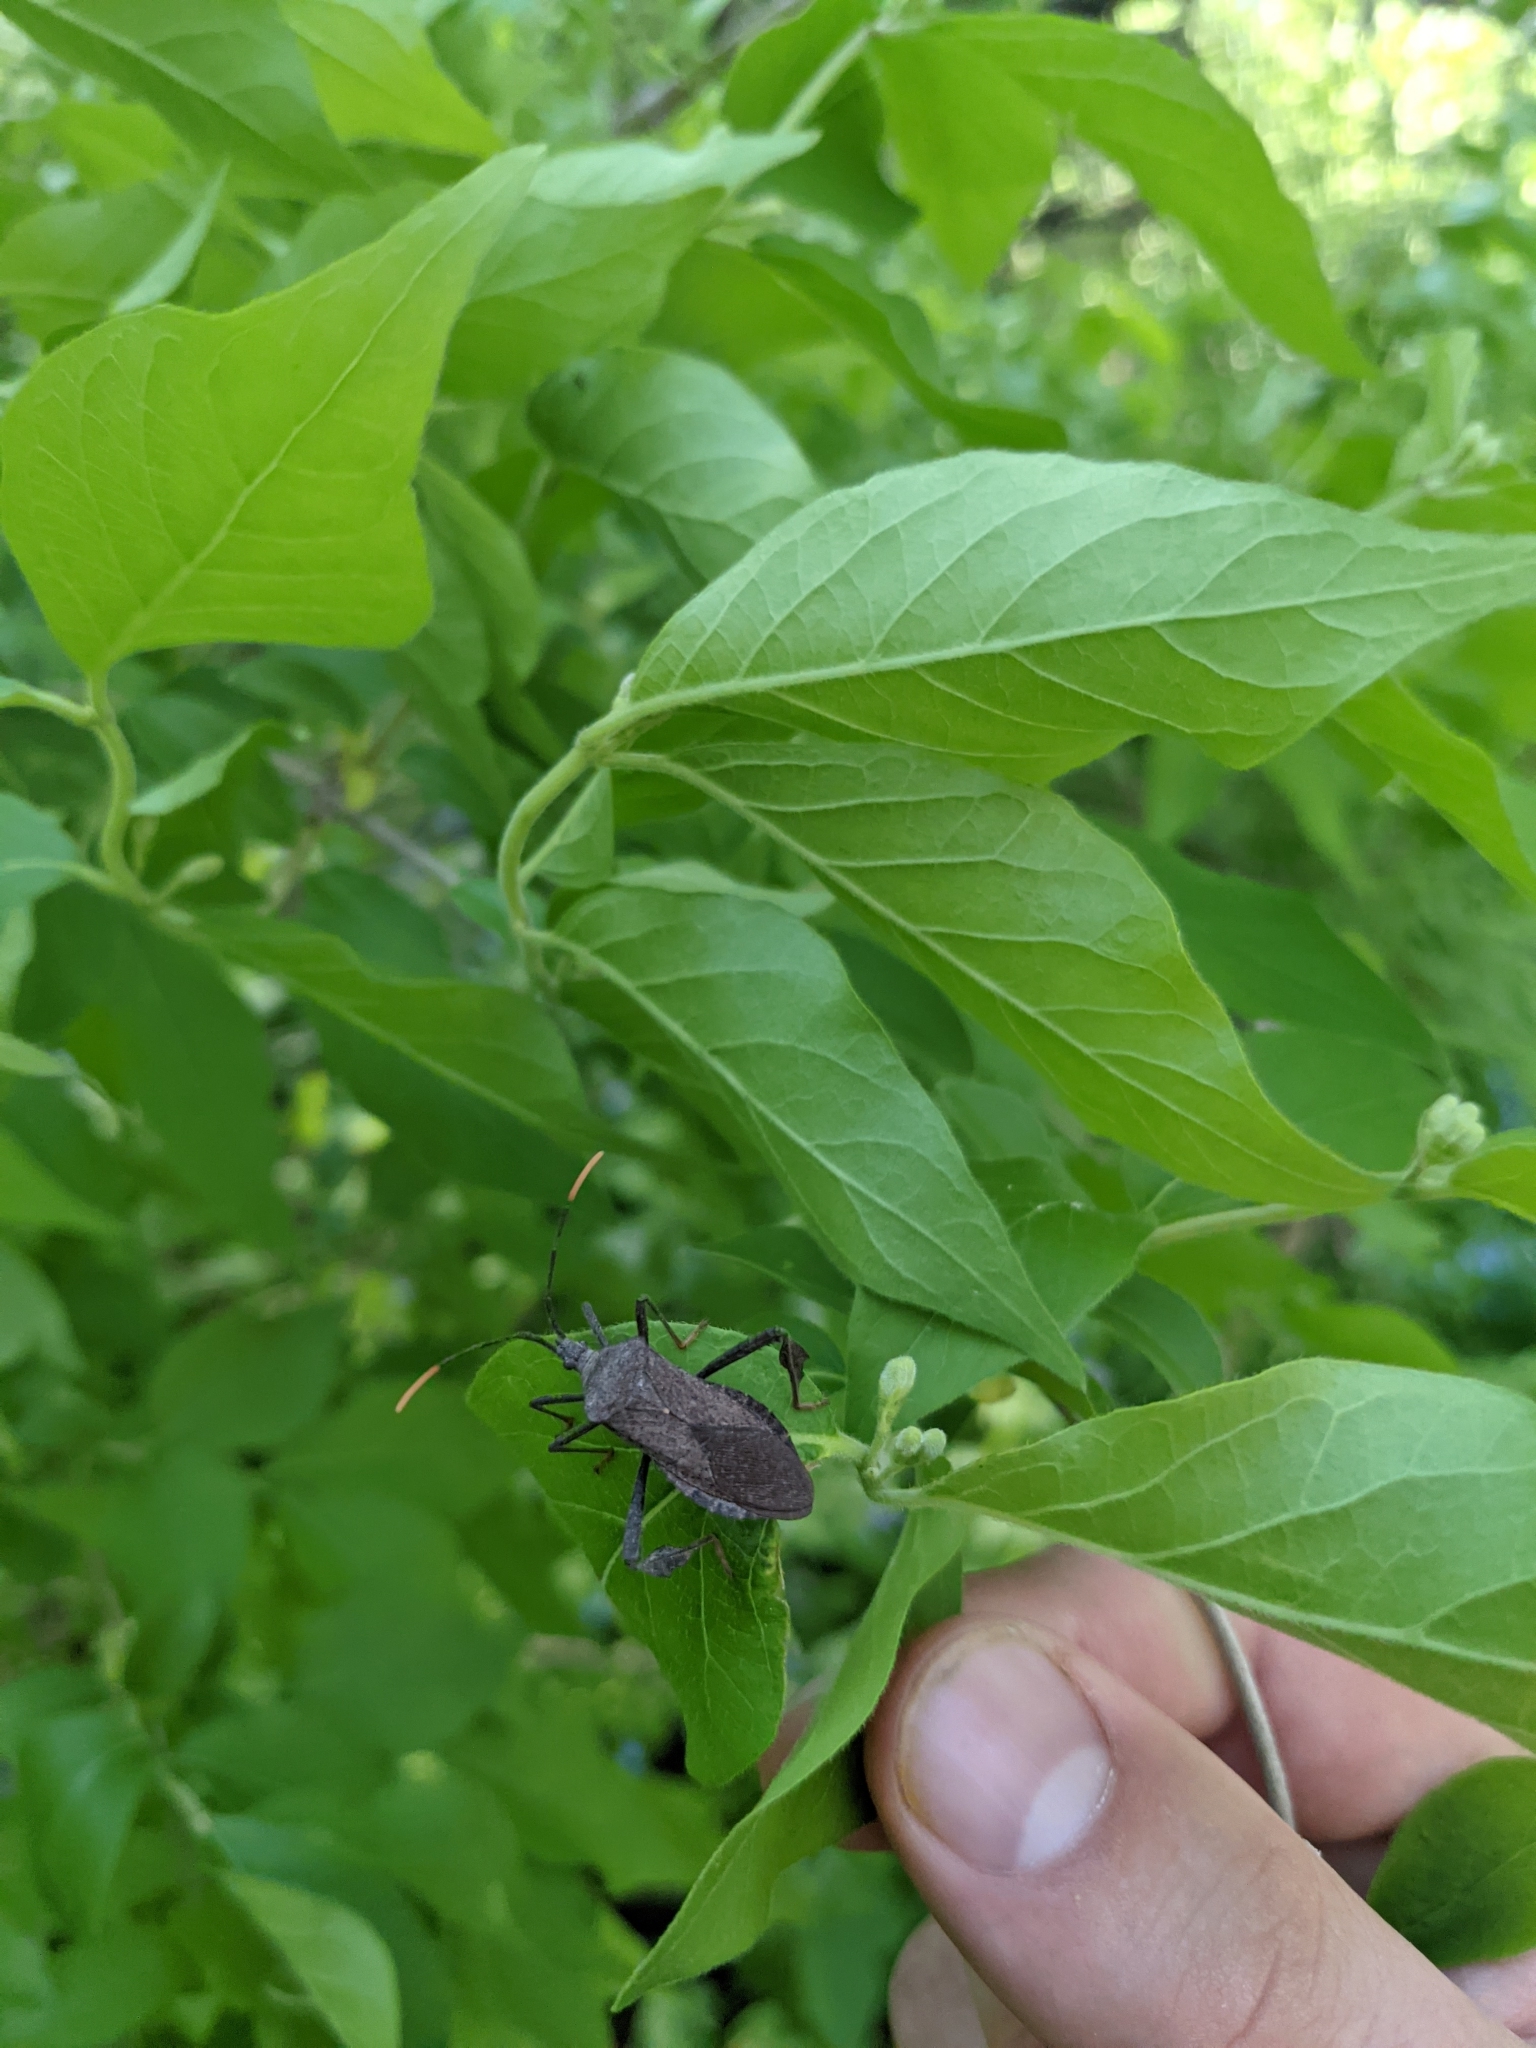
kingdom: Animalia
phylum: Arthropoda
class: Insecta
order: Hemiptera
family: Coreidae
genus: Acanthocephala
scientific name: Acanthocephala terminalis
